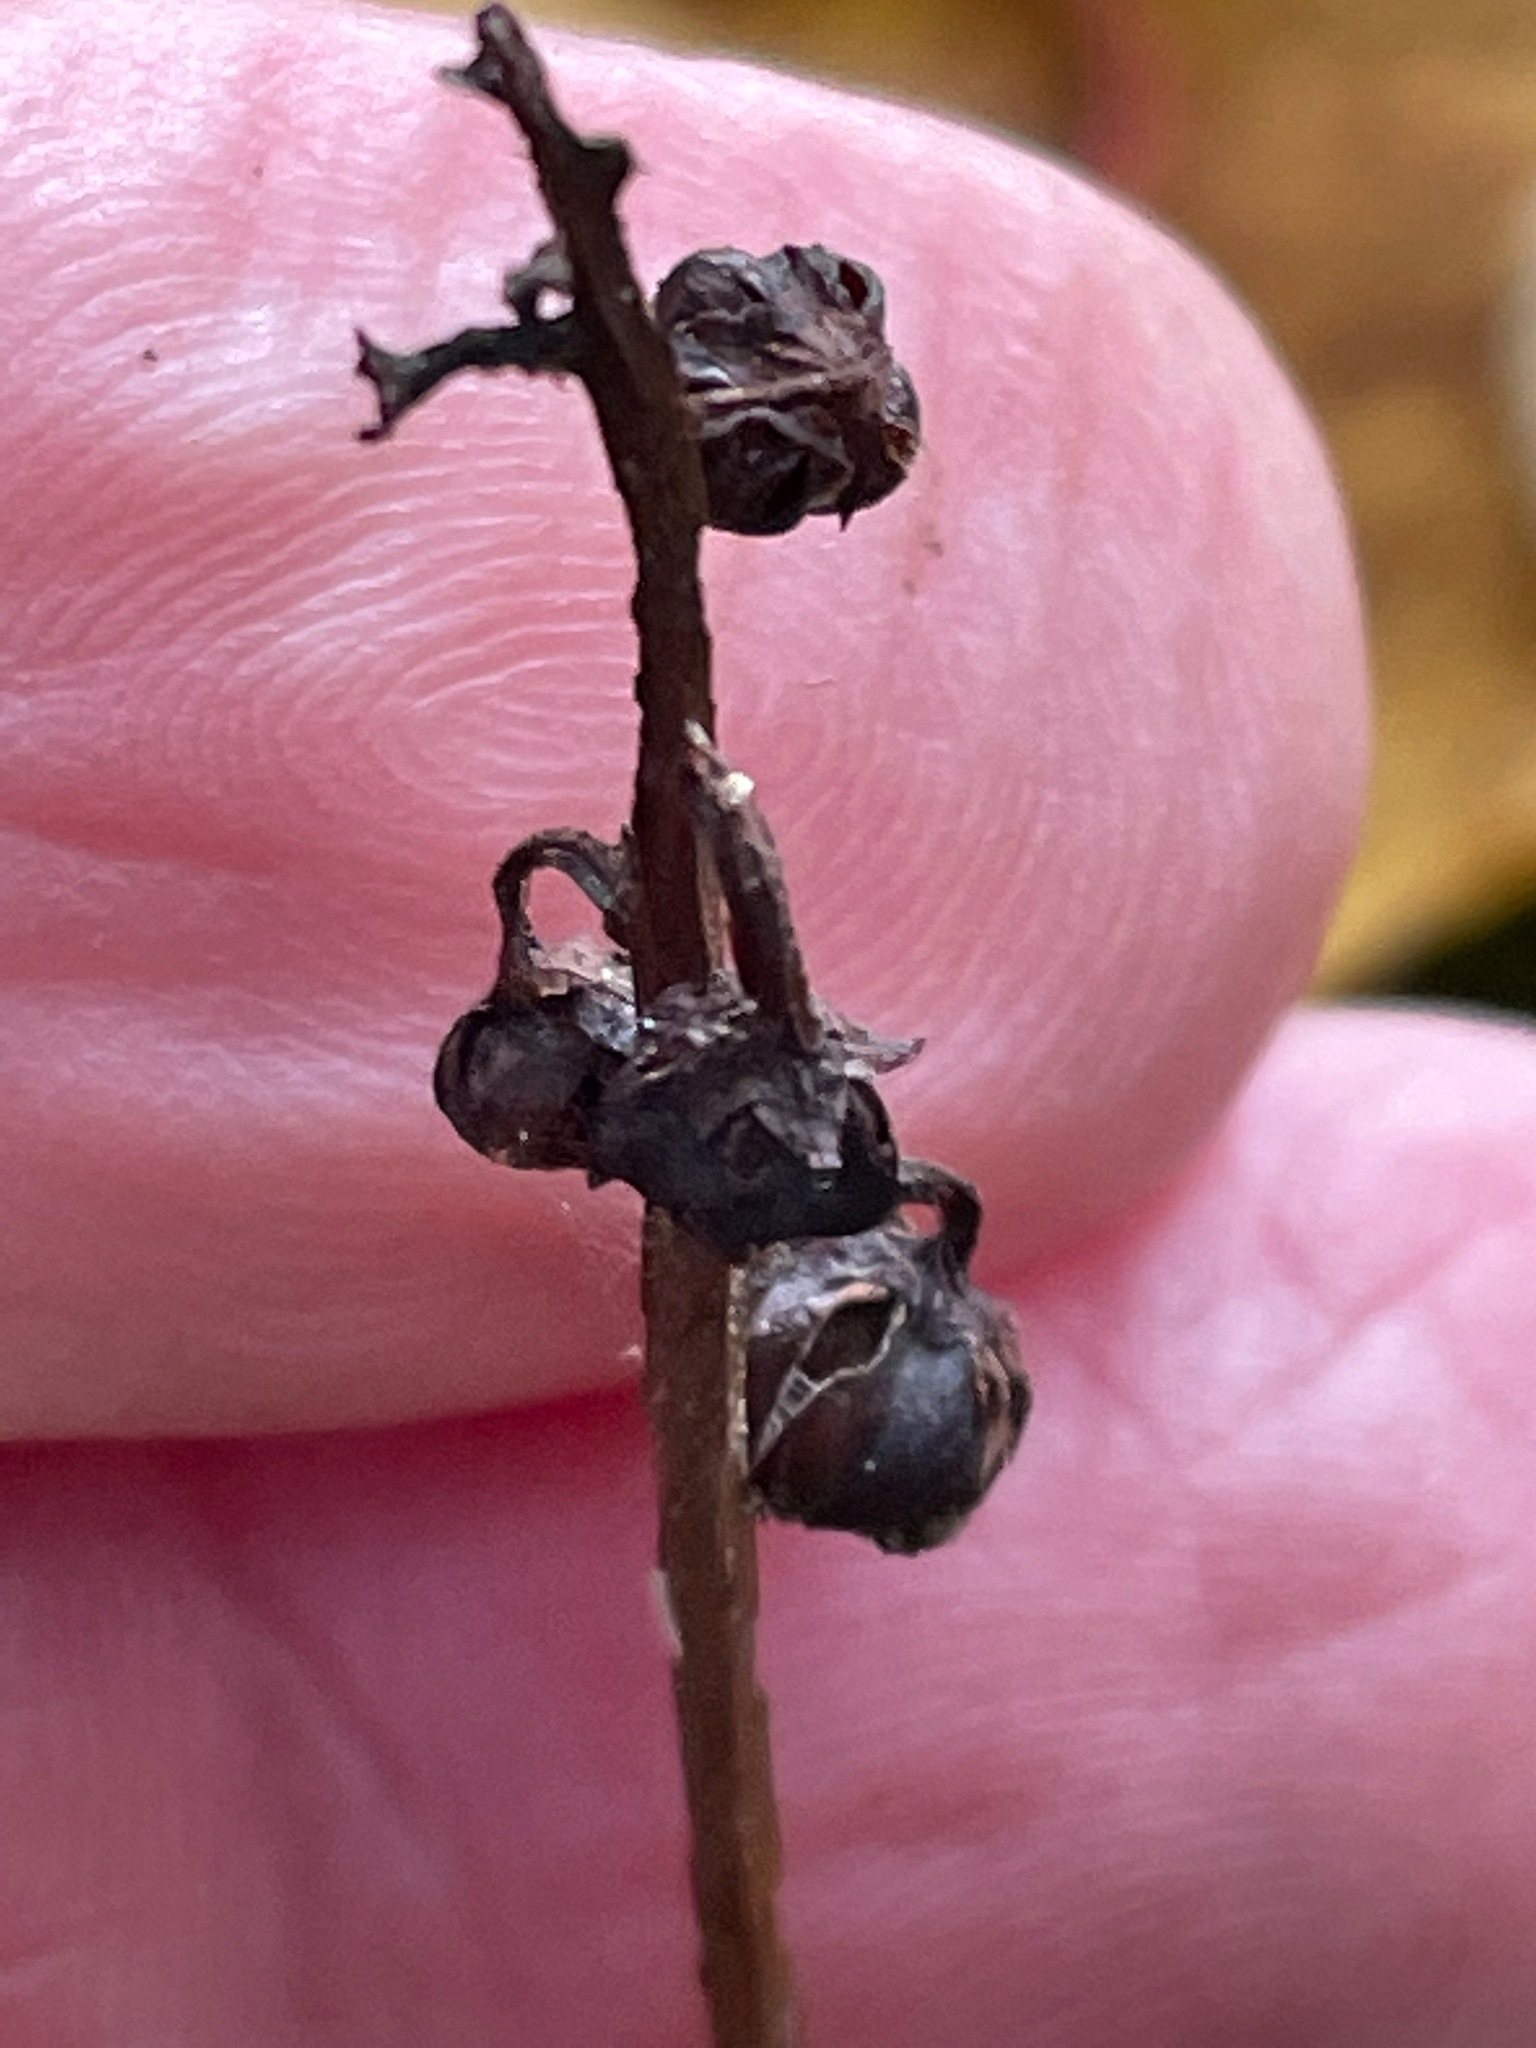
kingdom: Plantae
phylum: Tracheophyta
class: Magnoliopsida
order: Ericales
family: Ericaceae
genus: Pyrola
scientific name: Pyrola elliptica
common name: Shinleaf
